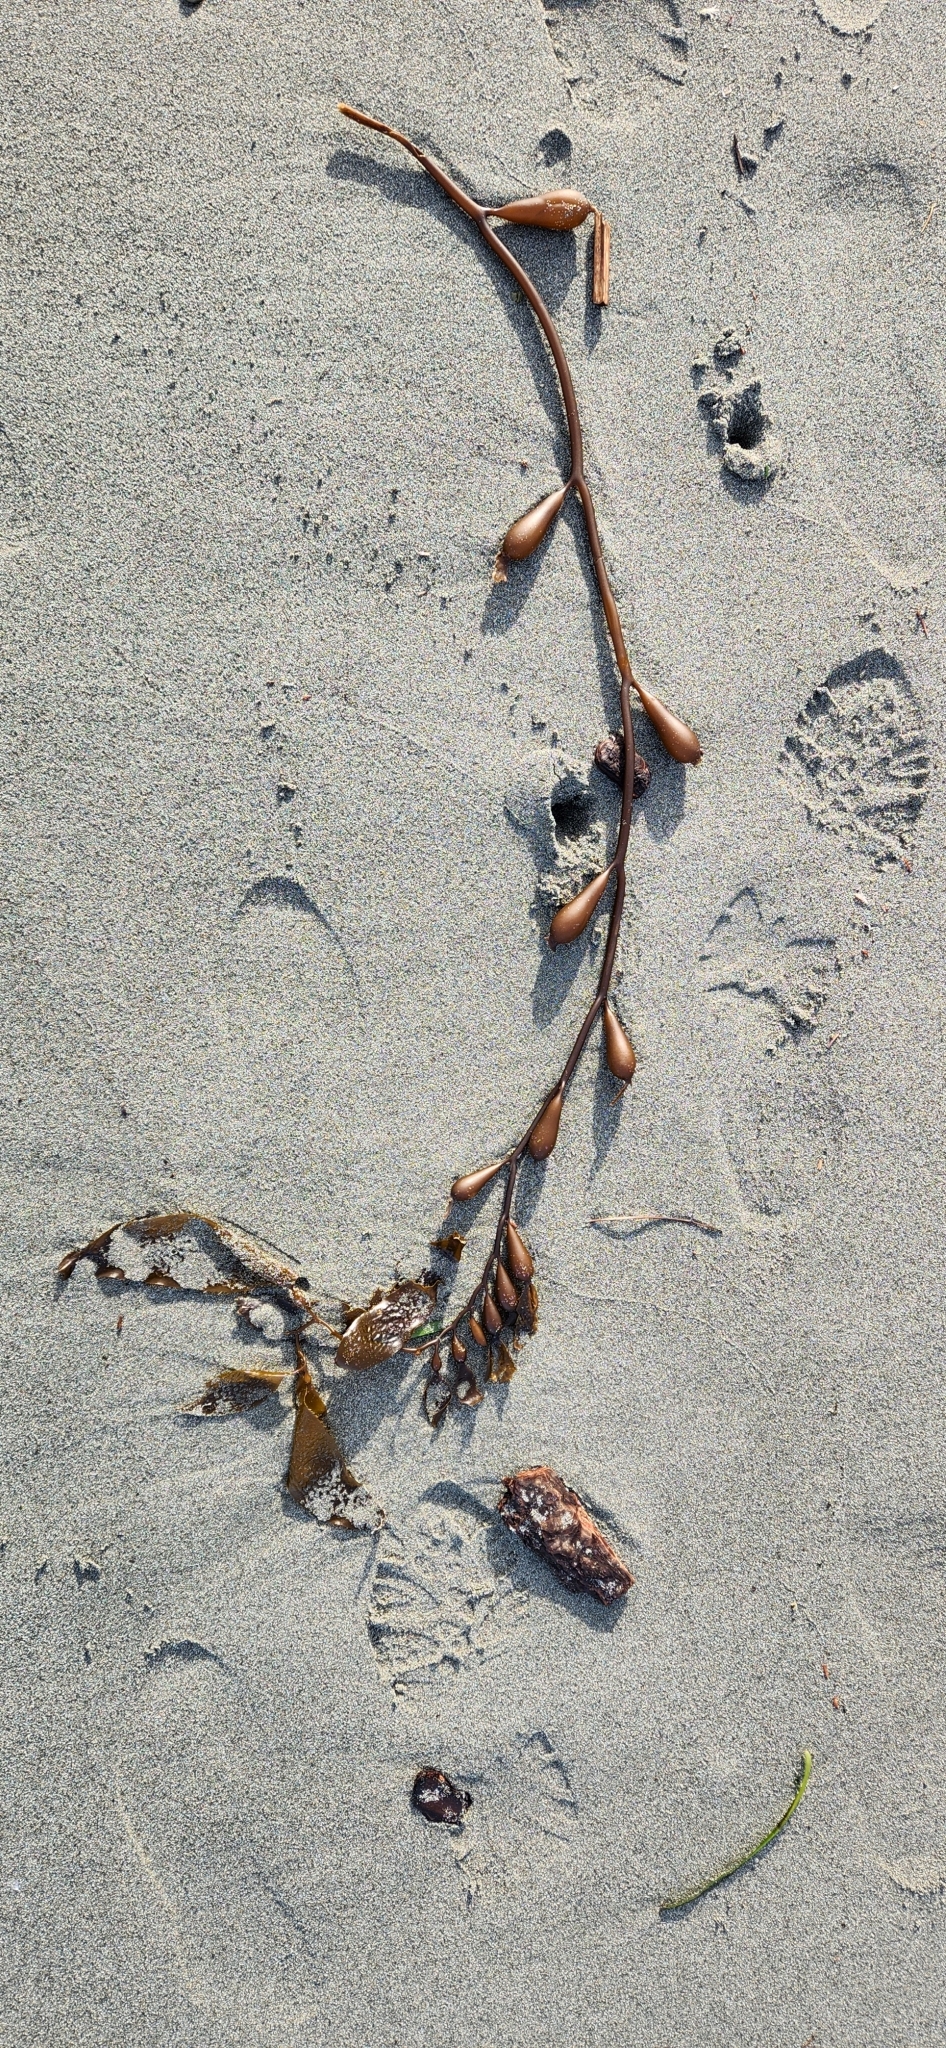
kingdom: Chromista
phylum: Ochrophyta
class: Phaeophyceae
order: Laminariales
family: Laminariaceae
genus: Macrocystis
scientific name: Macrocystis pyrifera
